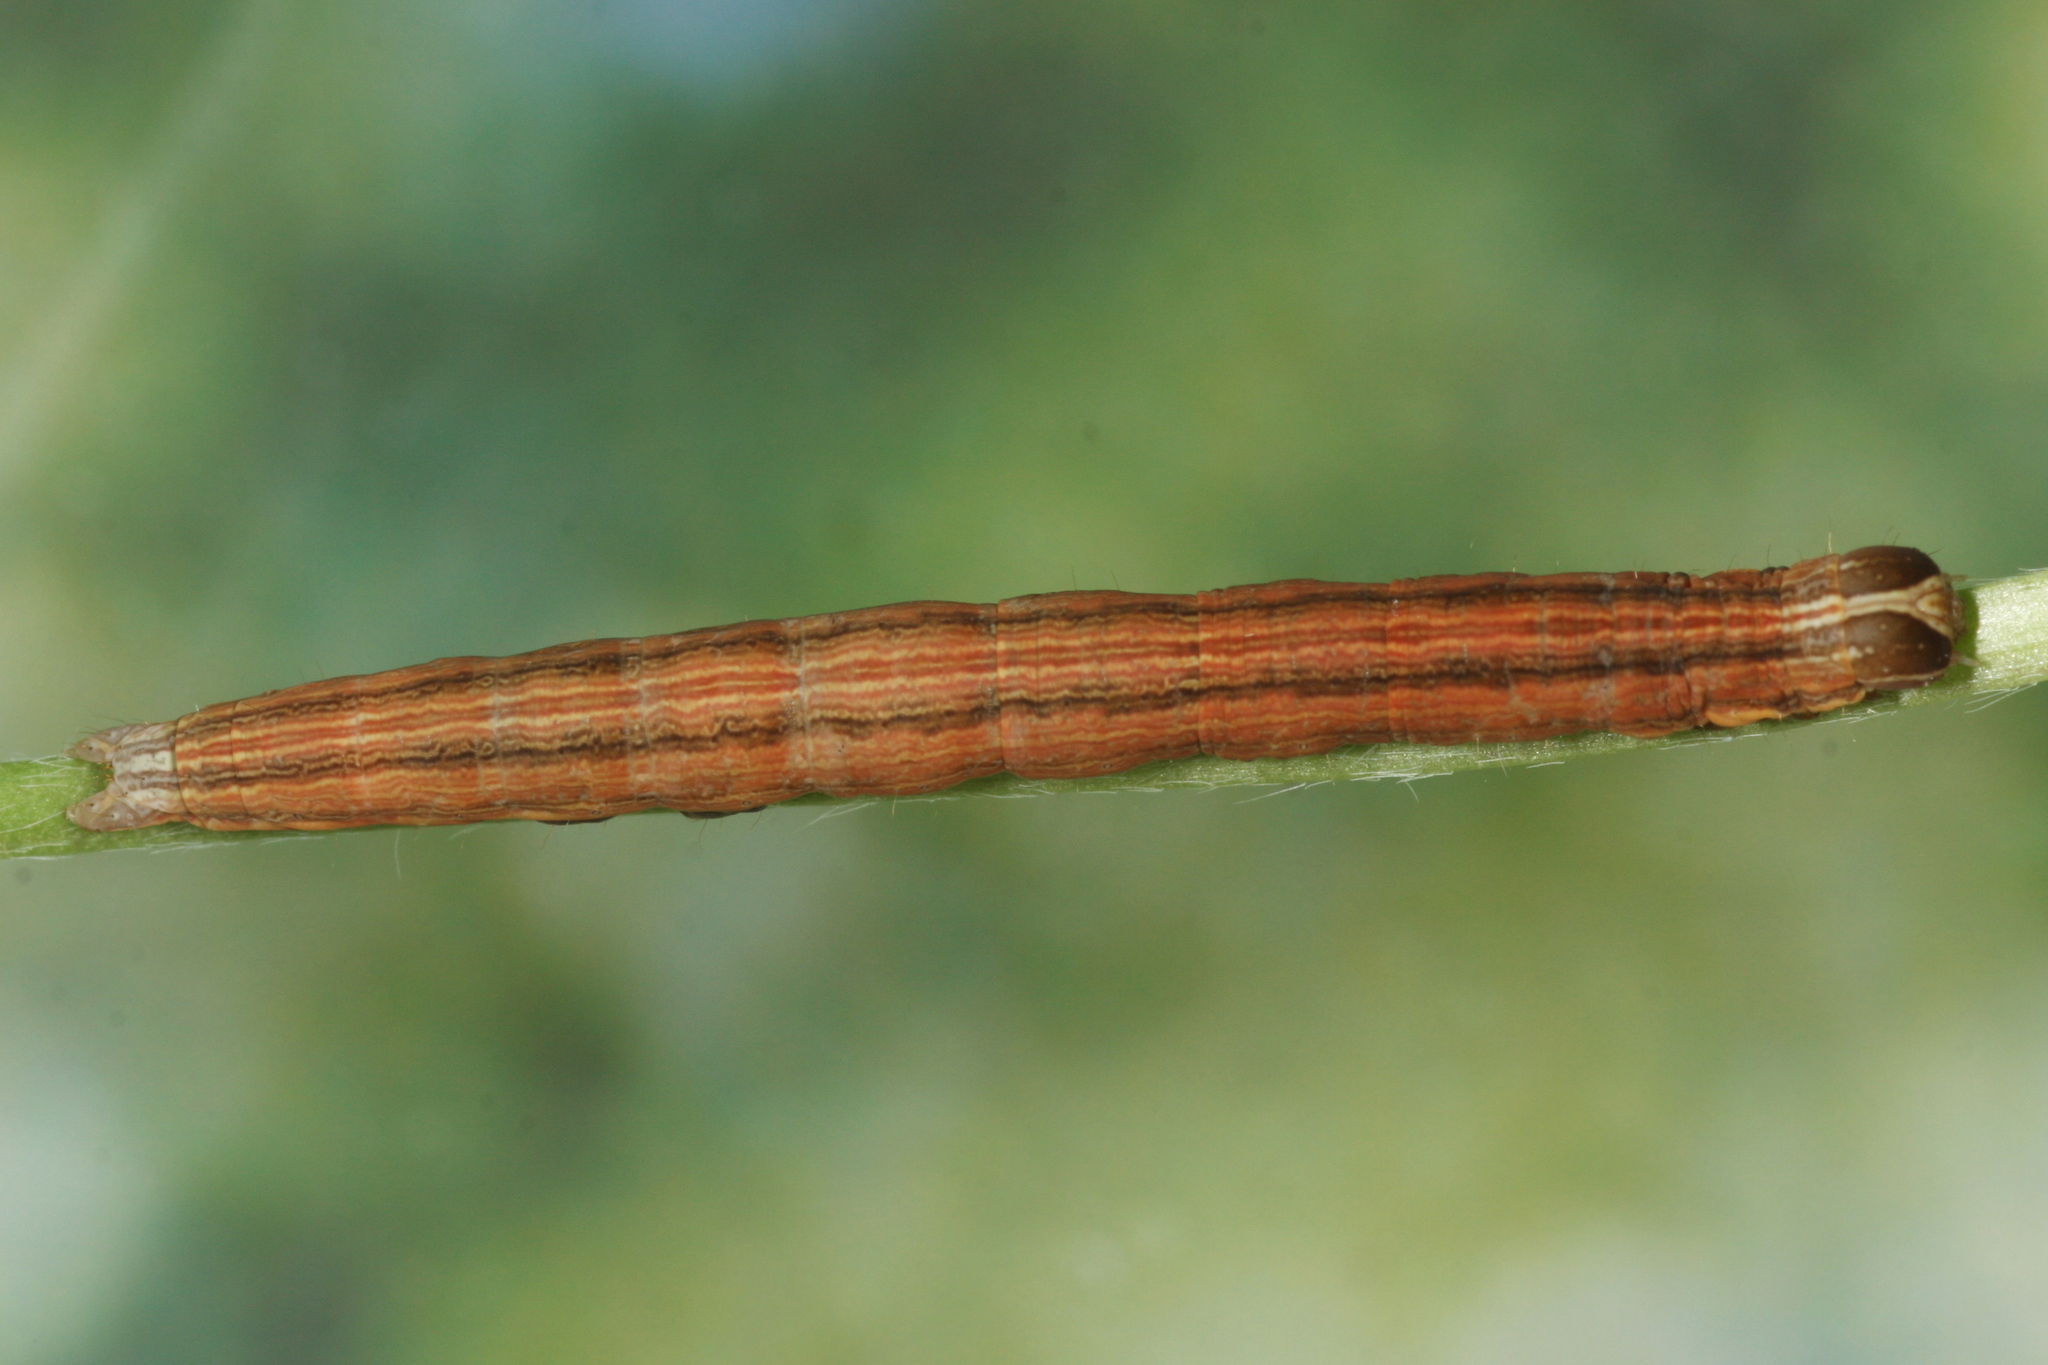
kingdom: Animalia
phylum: Arthropoda
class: Insecta
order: Lepidoptera
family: Erebidae
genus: Euclidia
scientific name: Euclidia glyphica
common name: Burnet companion
